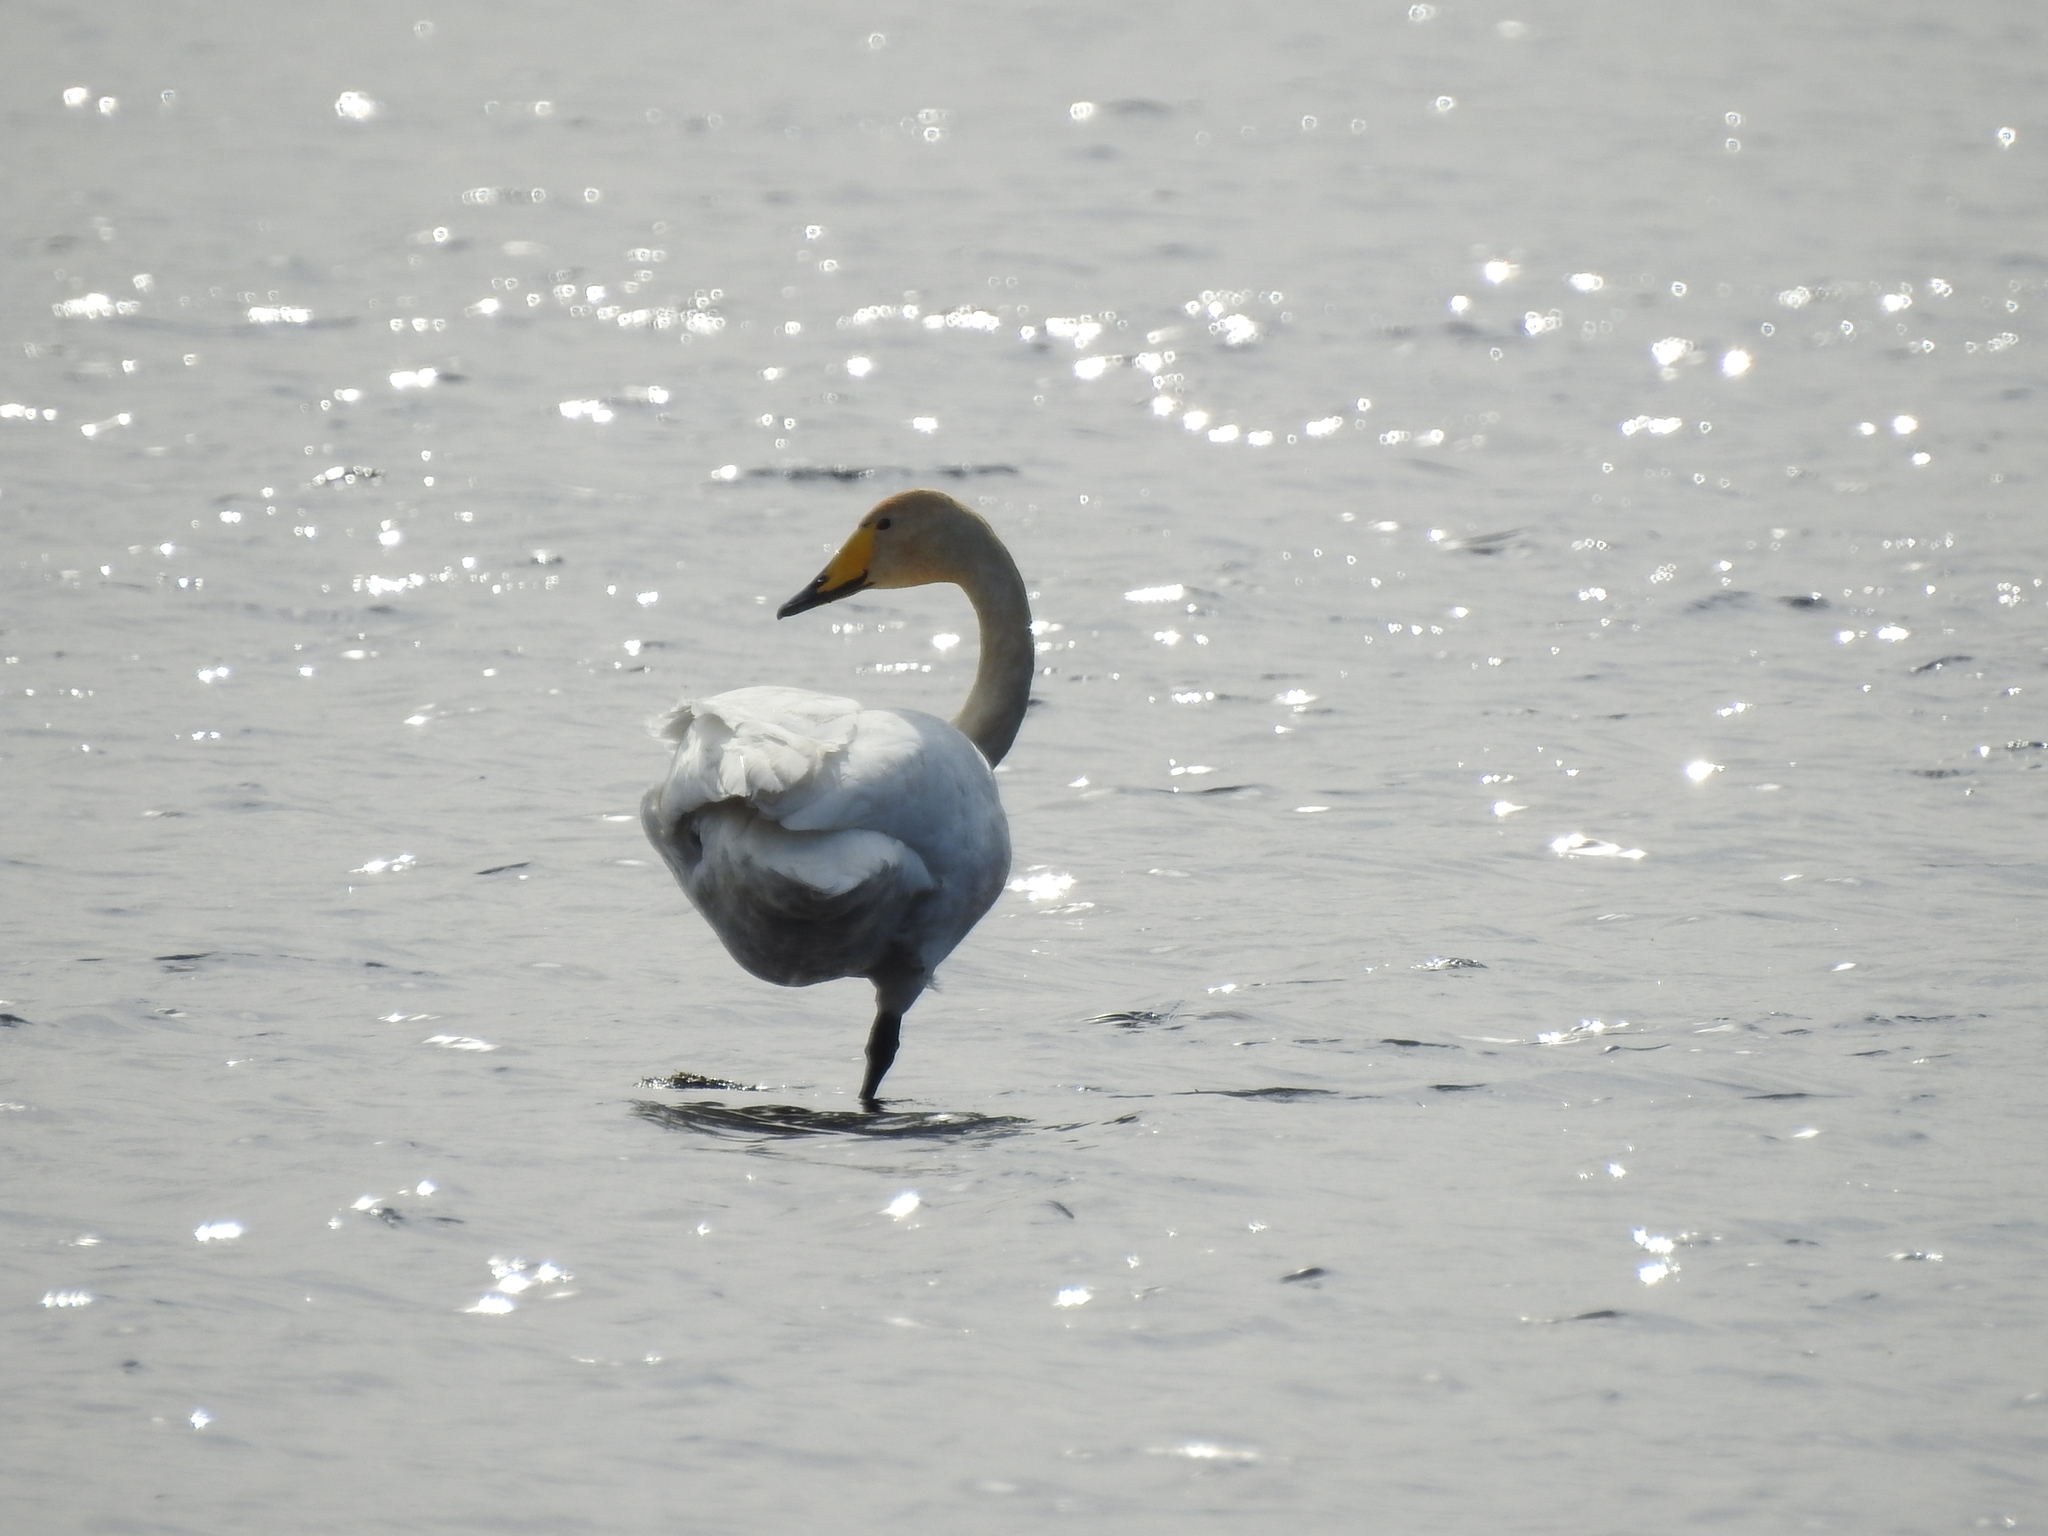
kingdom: Animalia
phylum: Chordata
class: Aves
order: Anseriformes
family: Anatidae
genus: Cygnus
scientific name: Cygnus cygnus
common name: Whooper swan
